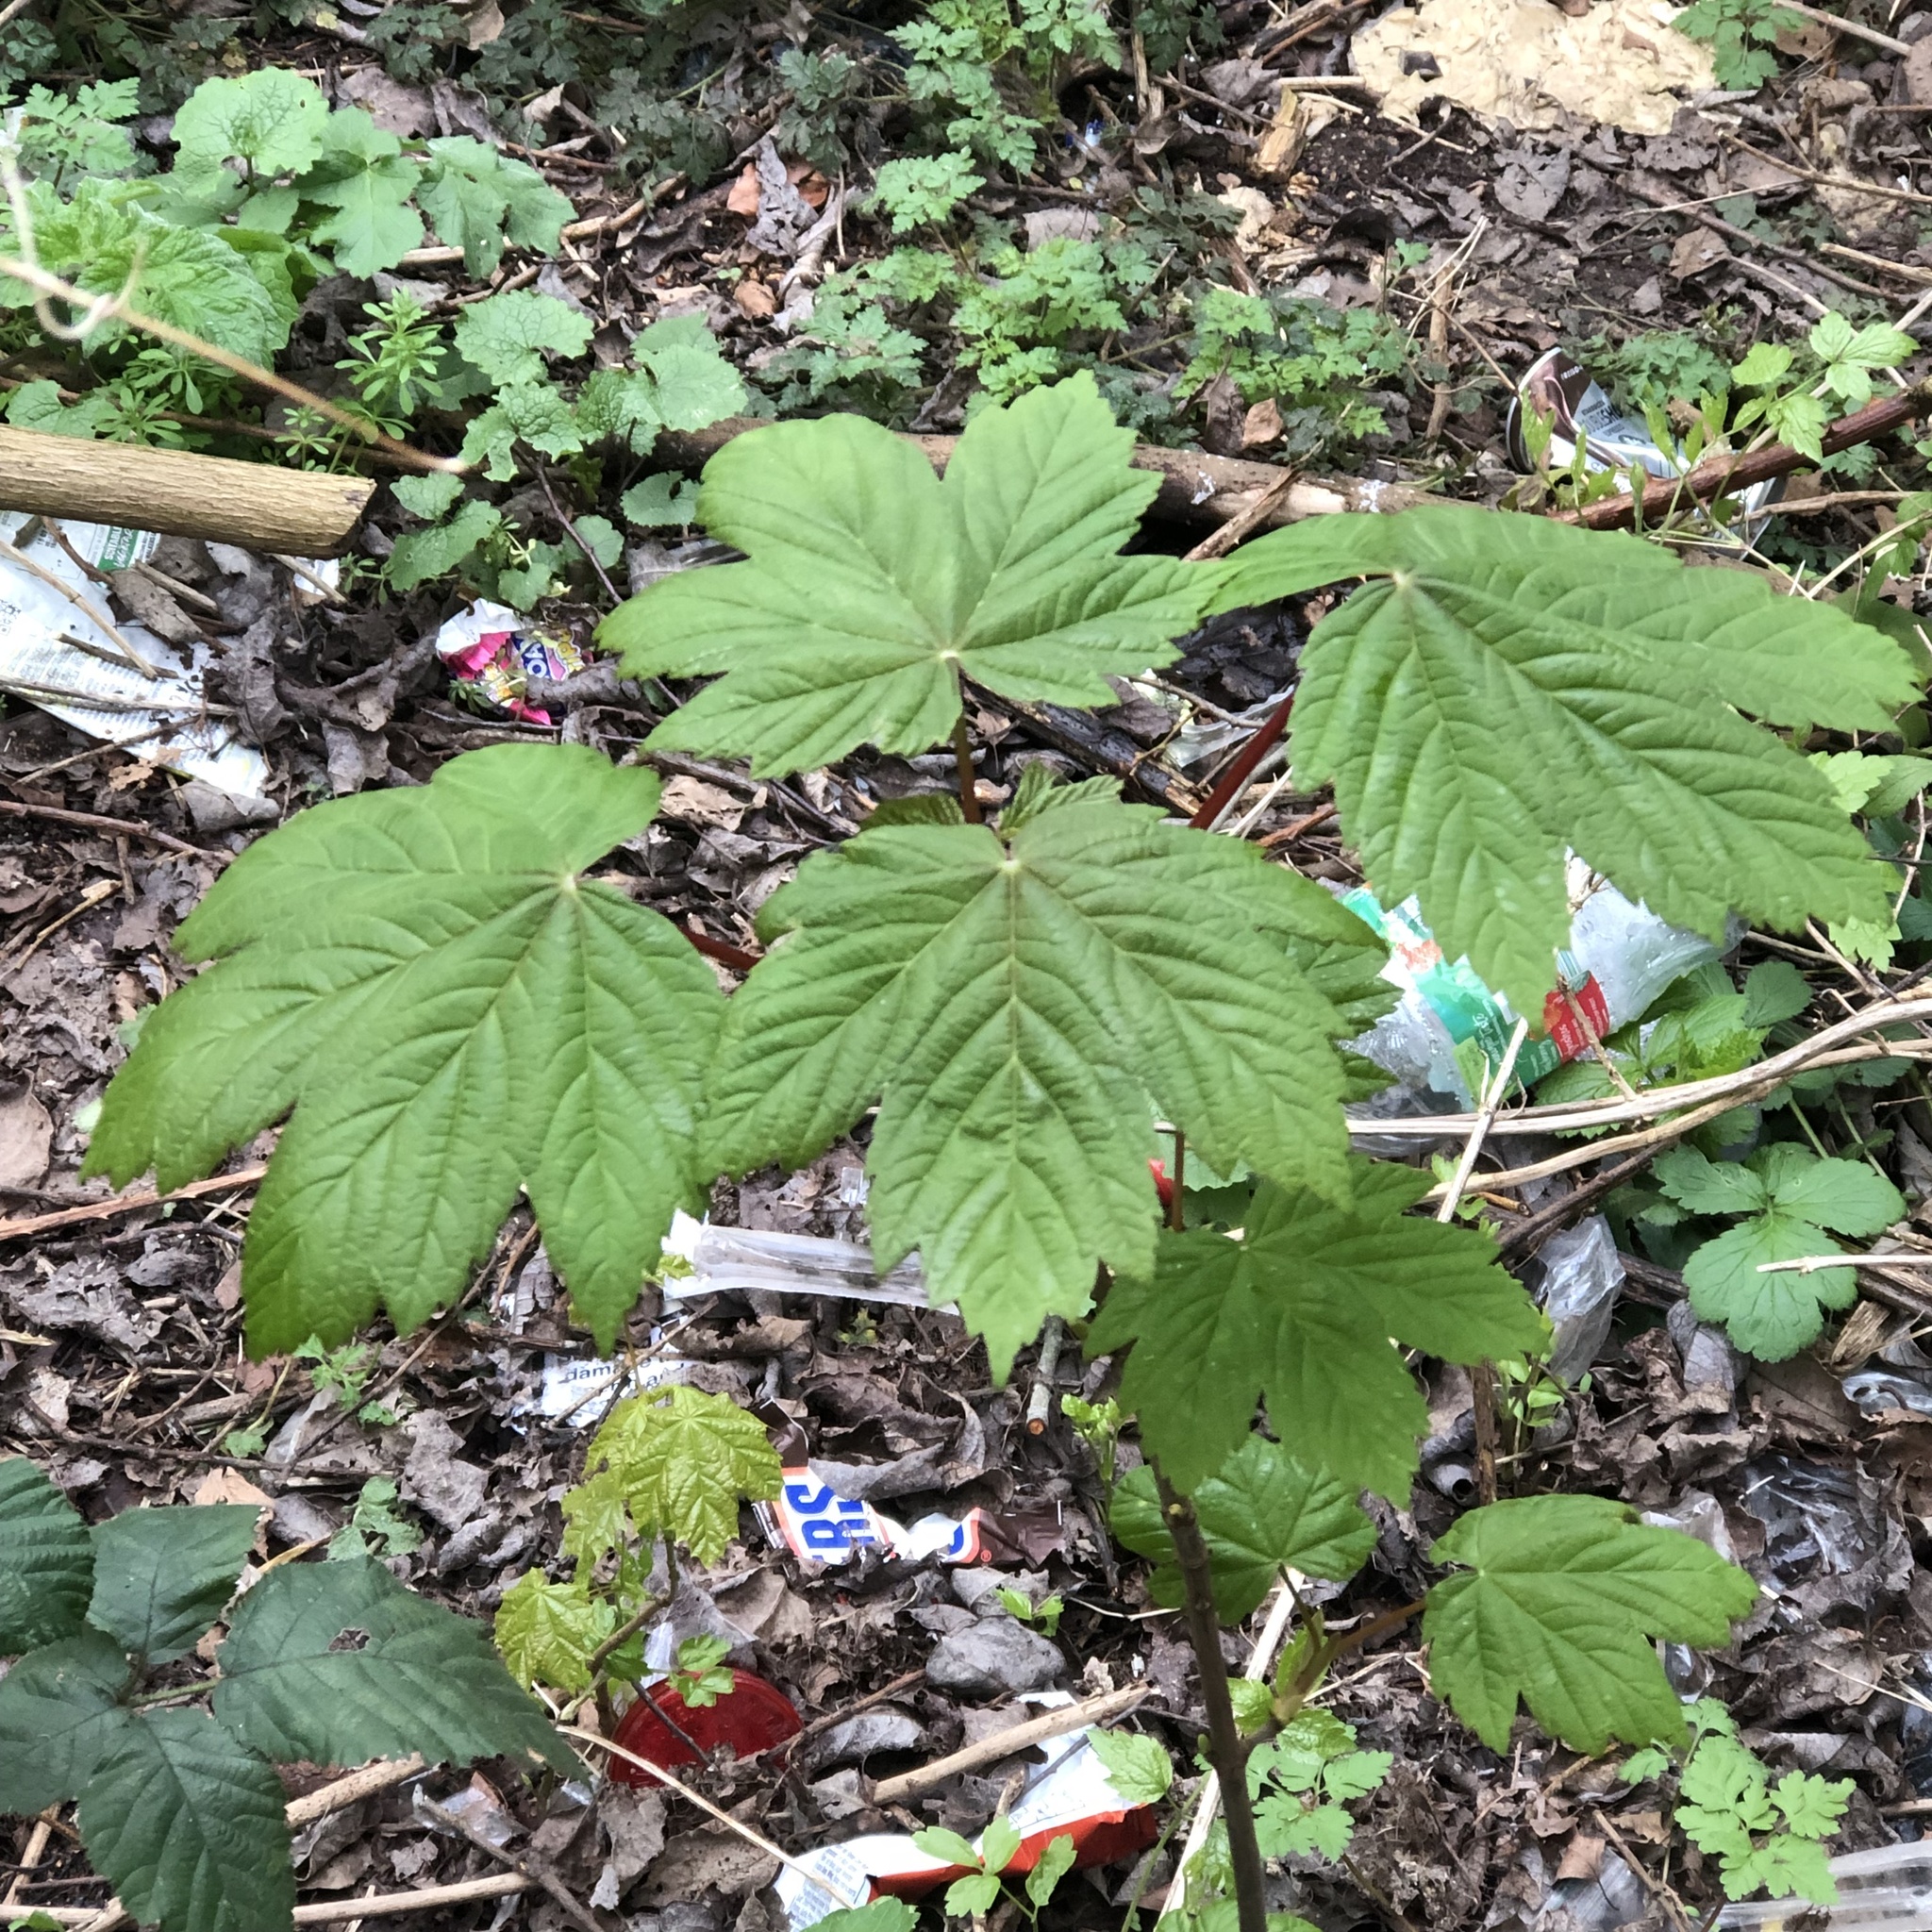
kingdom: Plantae
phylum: Tracheophyta
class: Magnoliopsida
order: Sapindales
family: Sapindaceae
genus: Acer
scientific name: Acer pseudoplatanus
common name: Sycamore
